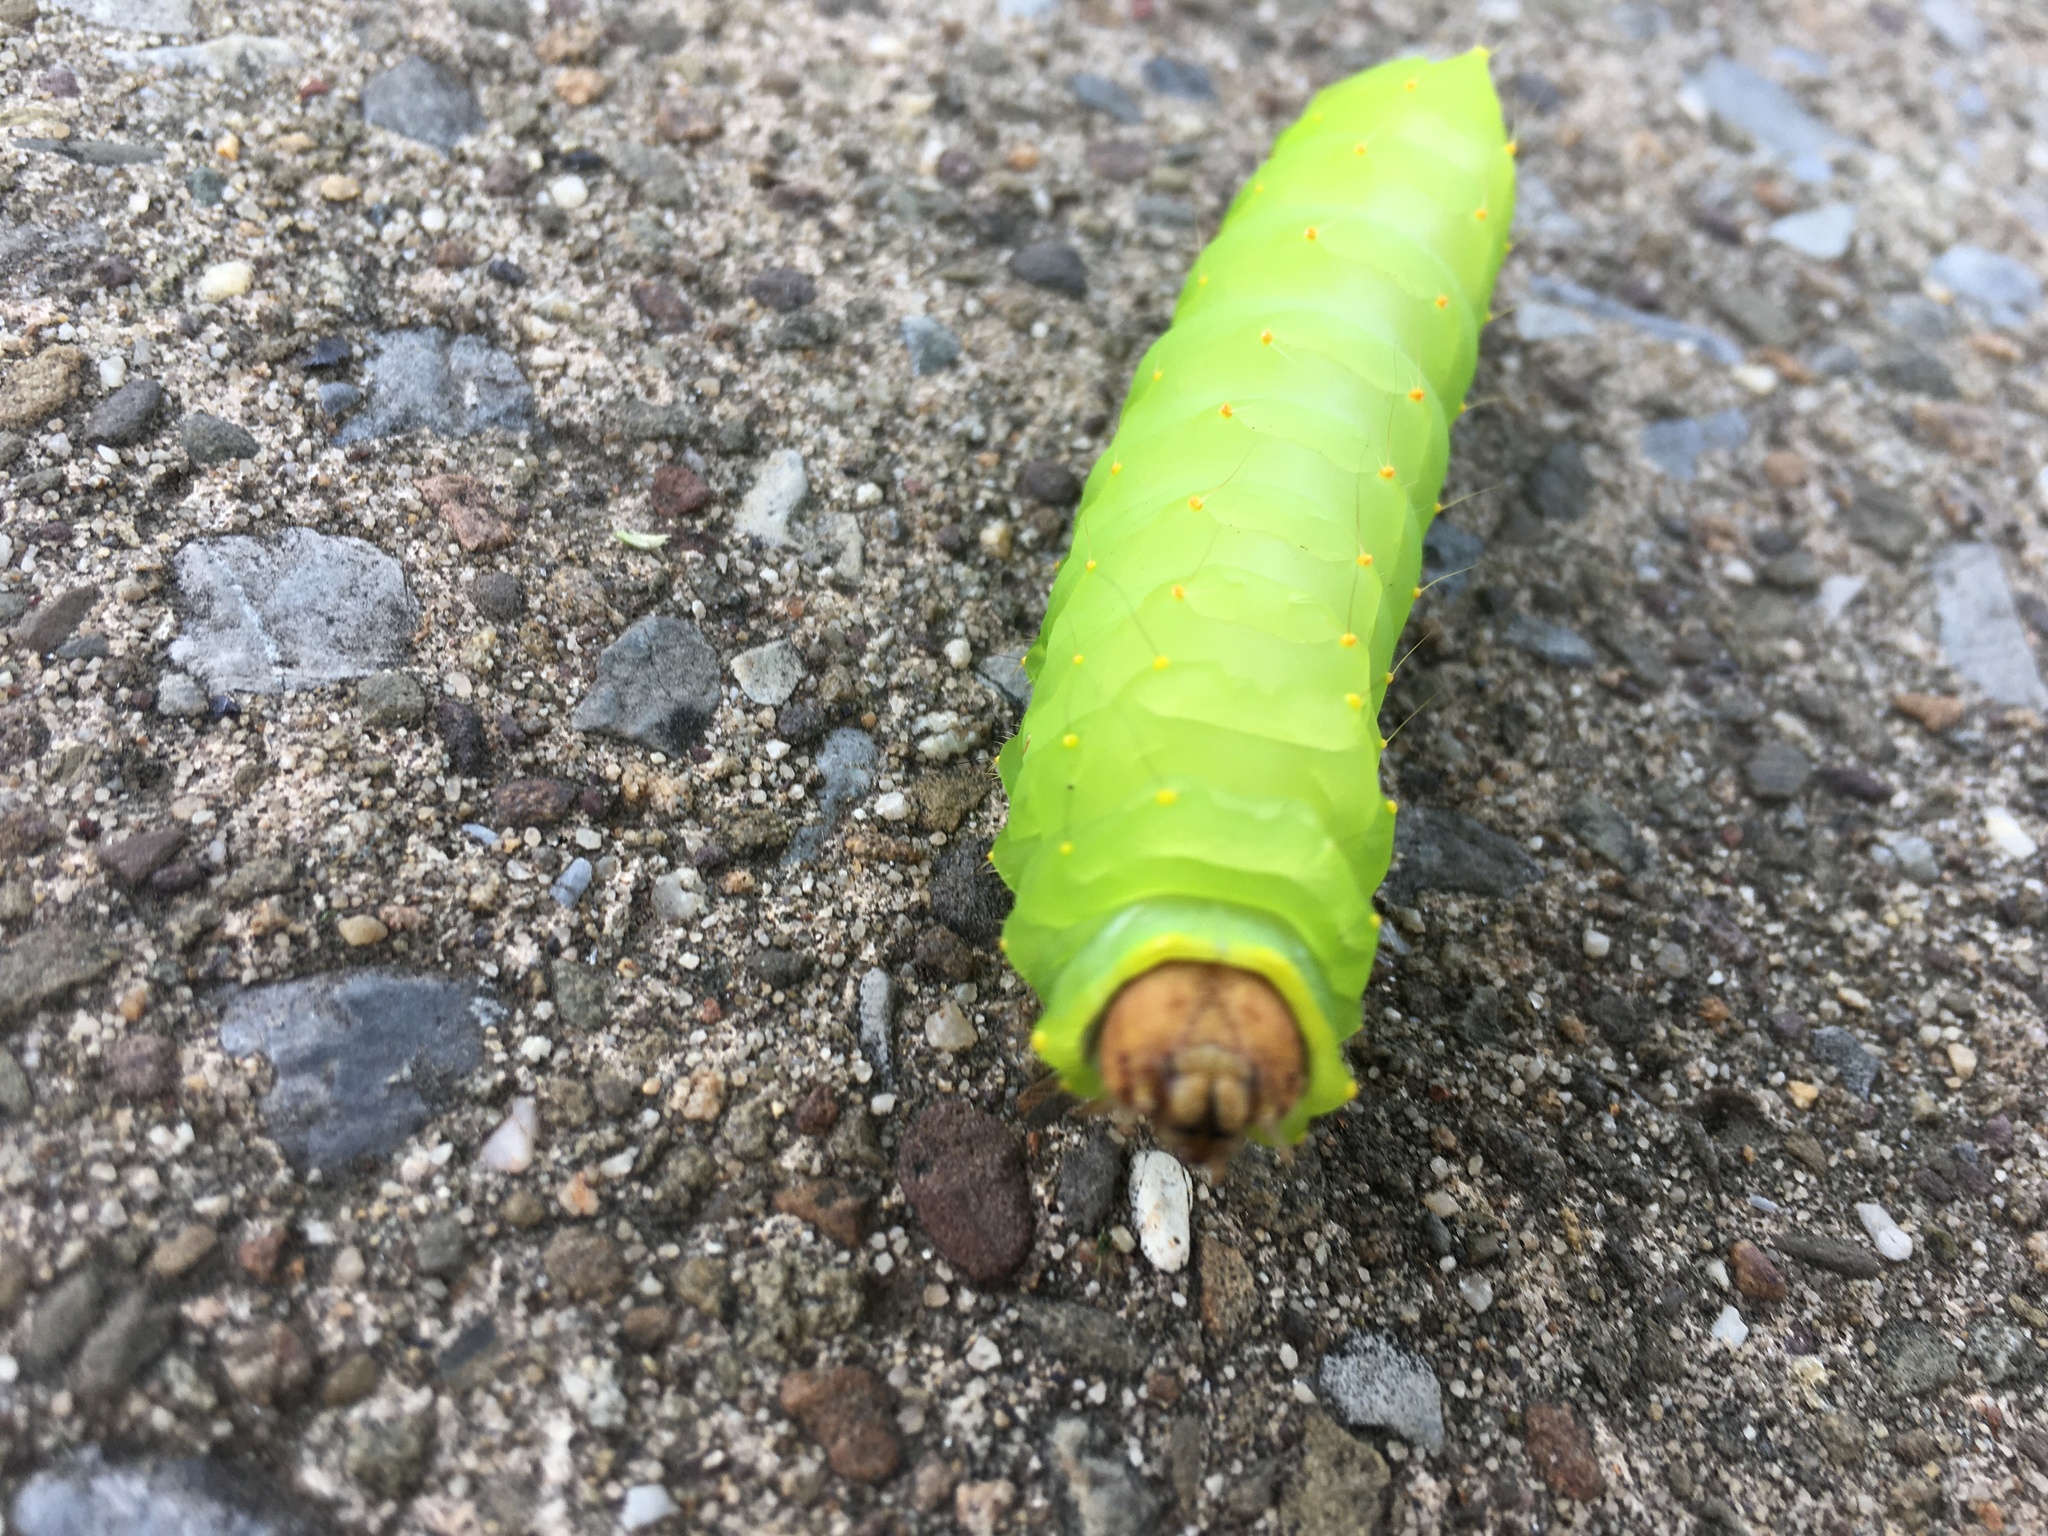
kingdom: Animalia
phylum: Arthropoda
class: Insecta
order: Lepidoptera
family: Saturniidae
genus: Antheraea
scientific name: Antheraea polyphemus
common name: Polyphemus moth
